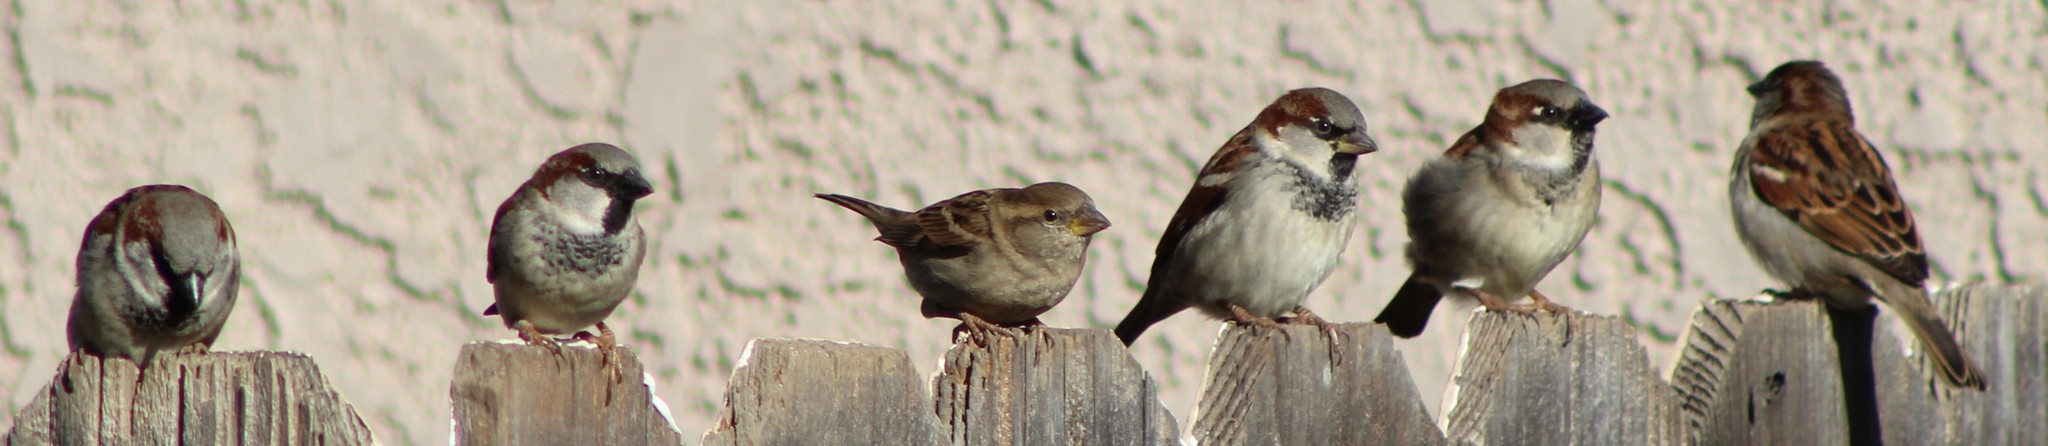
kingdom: Animalia
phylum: Chordata
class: Aves
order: Passeriformes
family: Passeridae
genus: Passer
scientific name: Passer domesticus
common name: House sparrow
